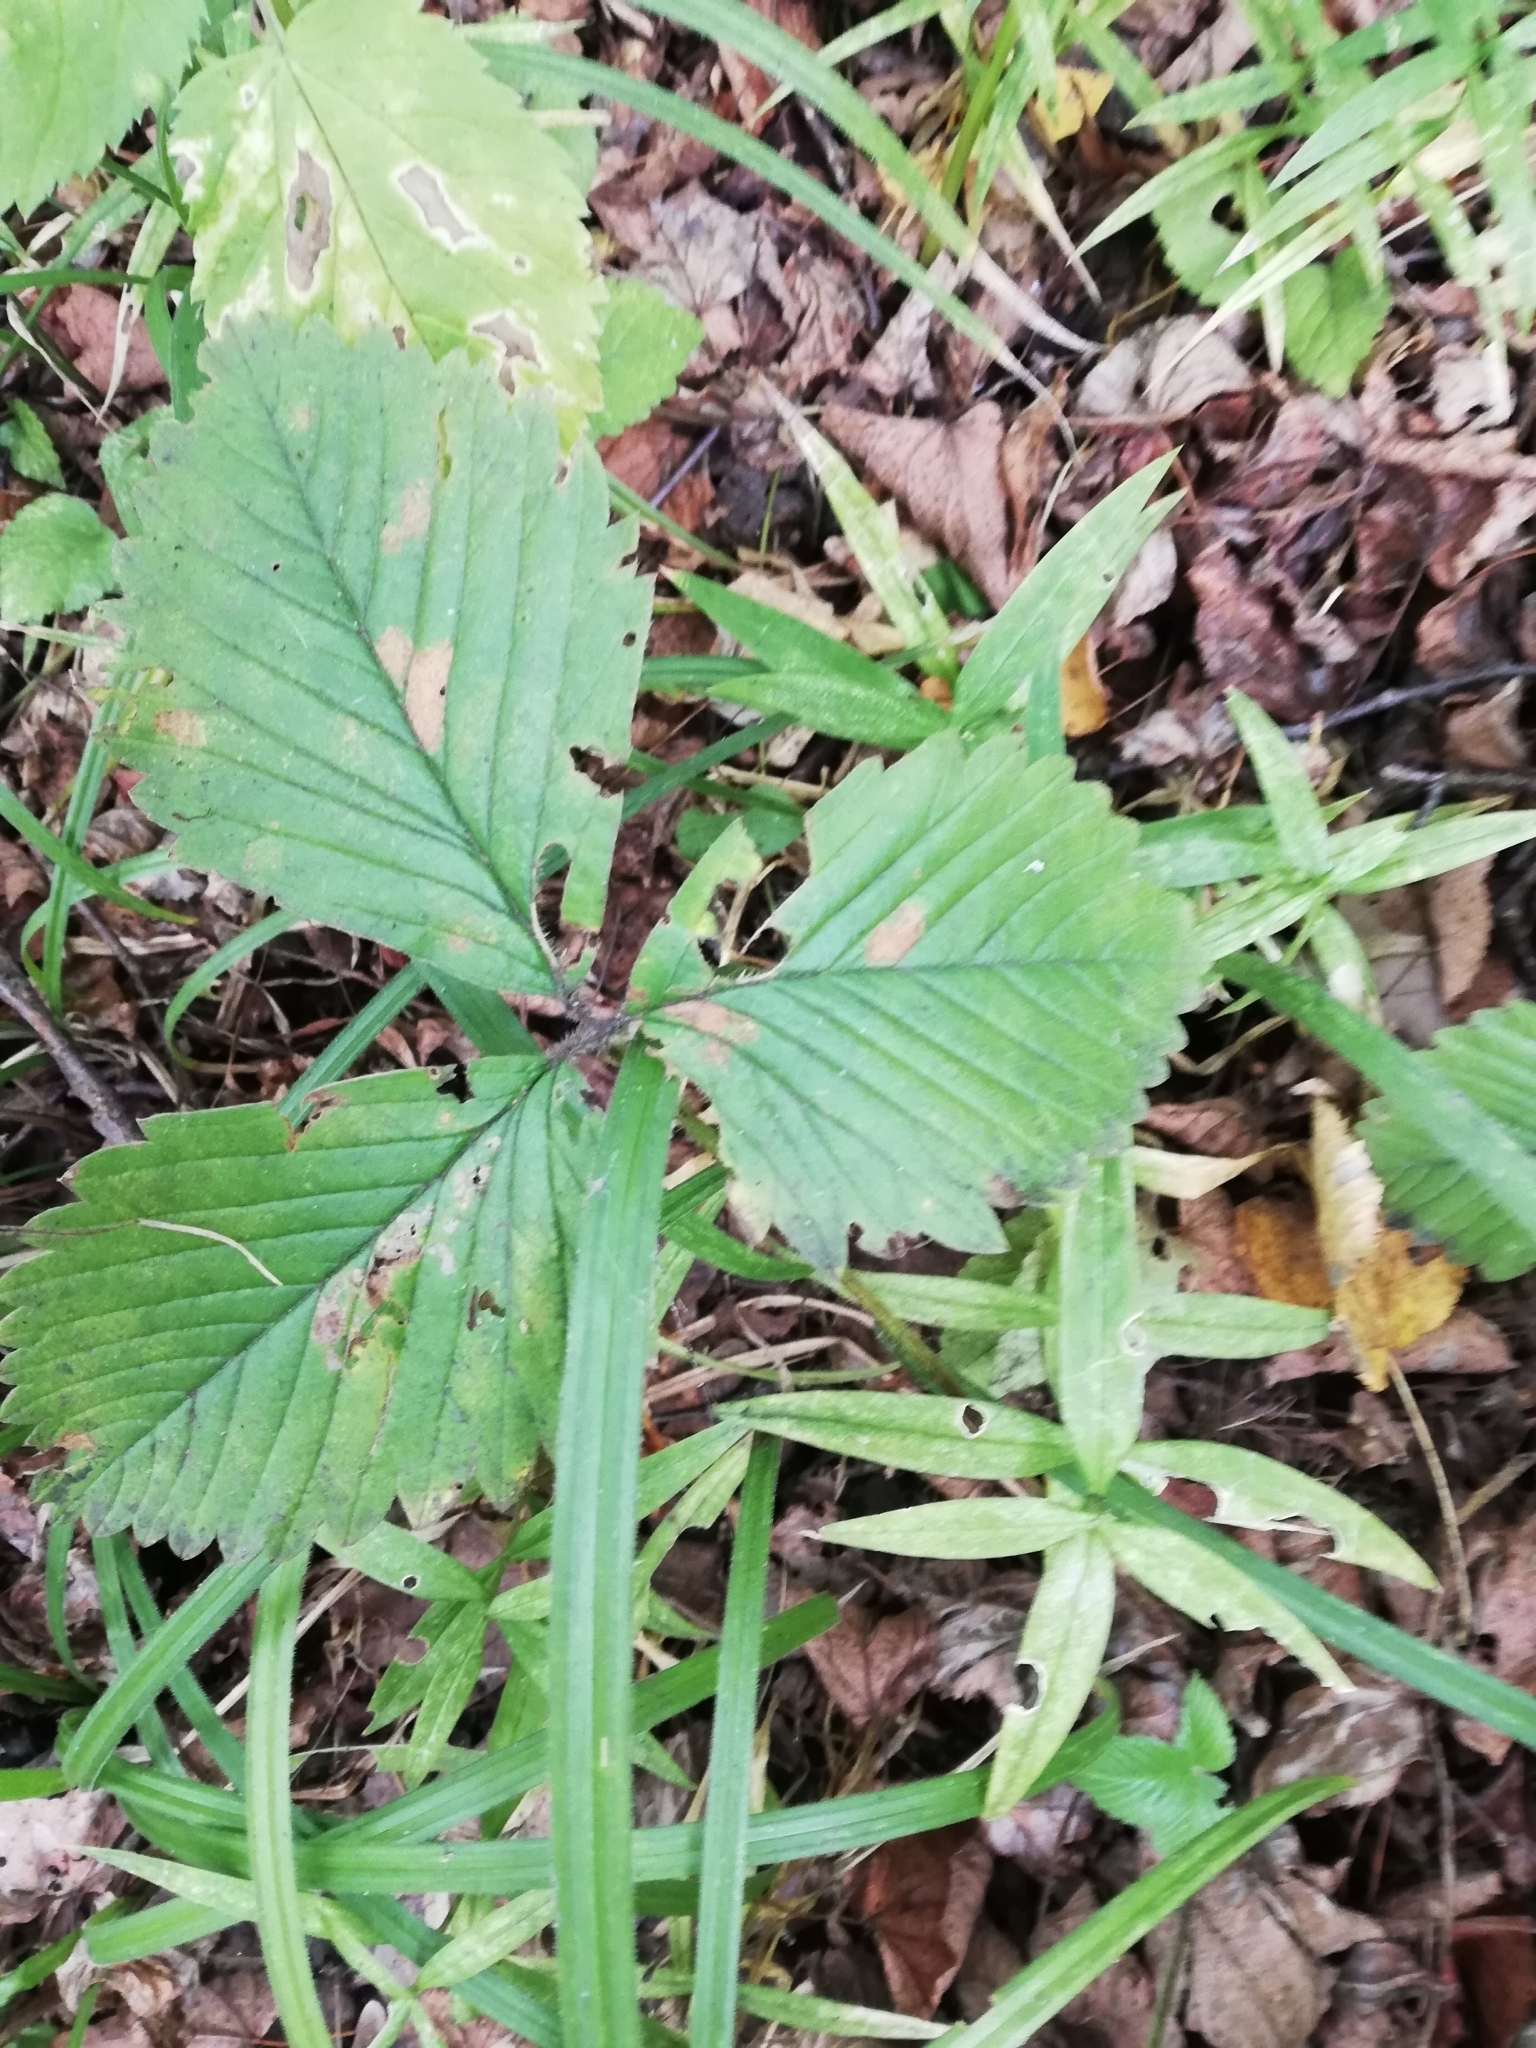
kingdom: Plantae
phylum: Tracheophyta
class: Magnoliopsida
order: Rosales
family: Rosaceae
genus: Fragaria
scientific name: Fragaria moschata
